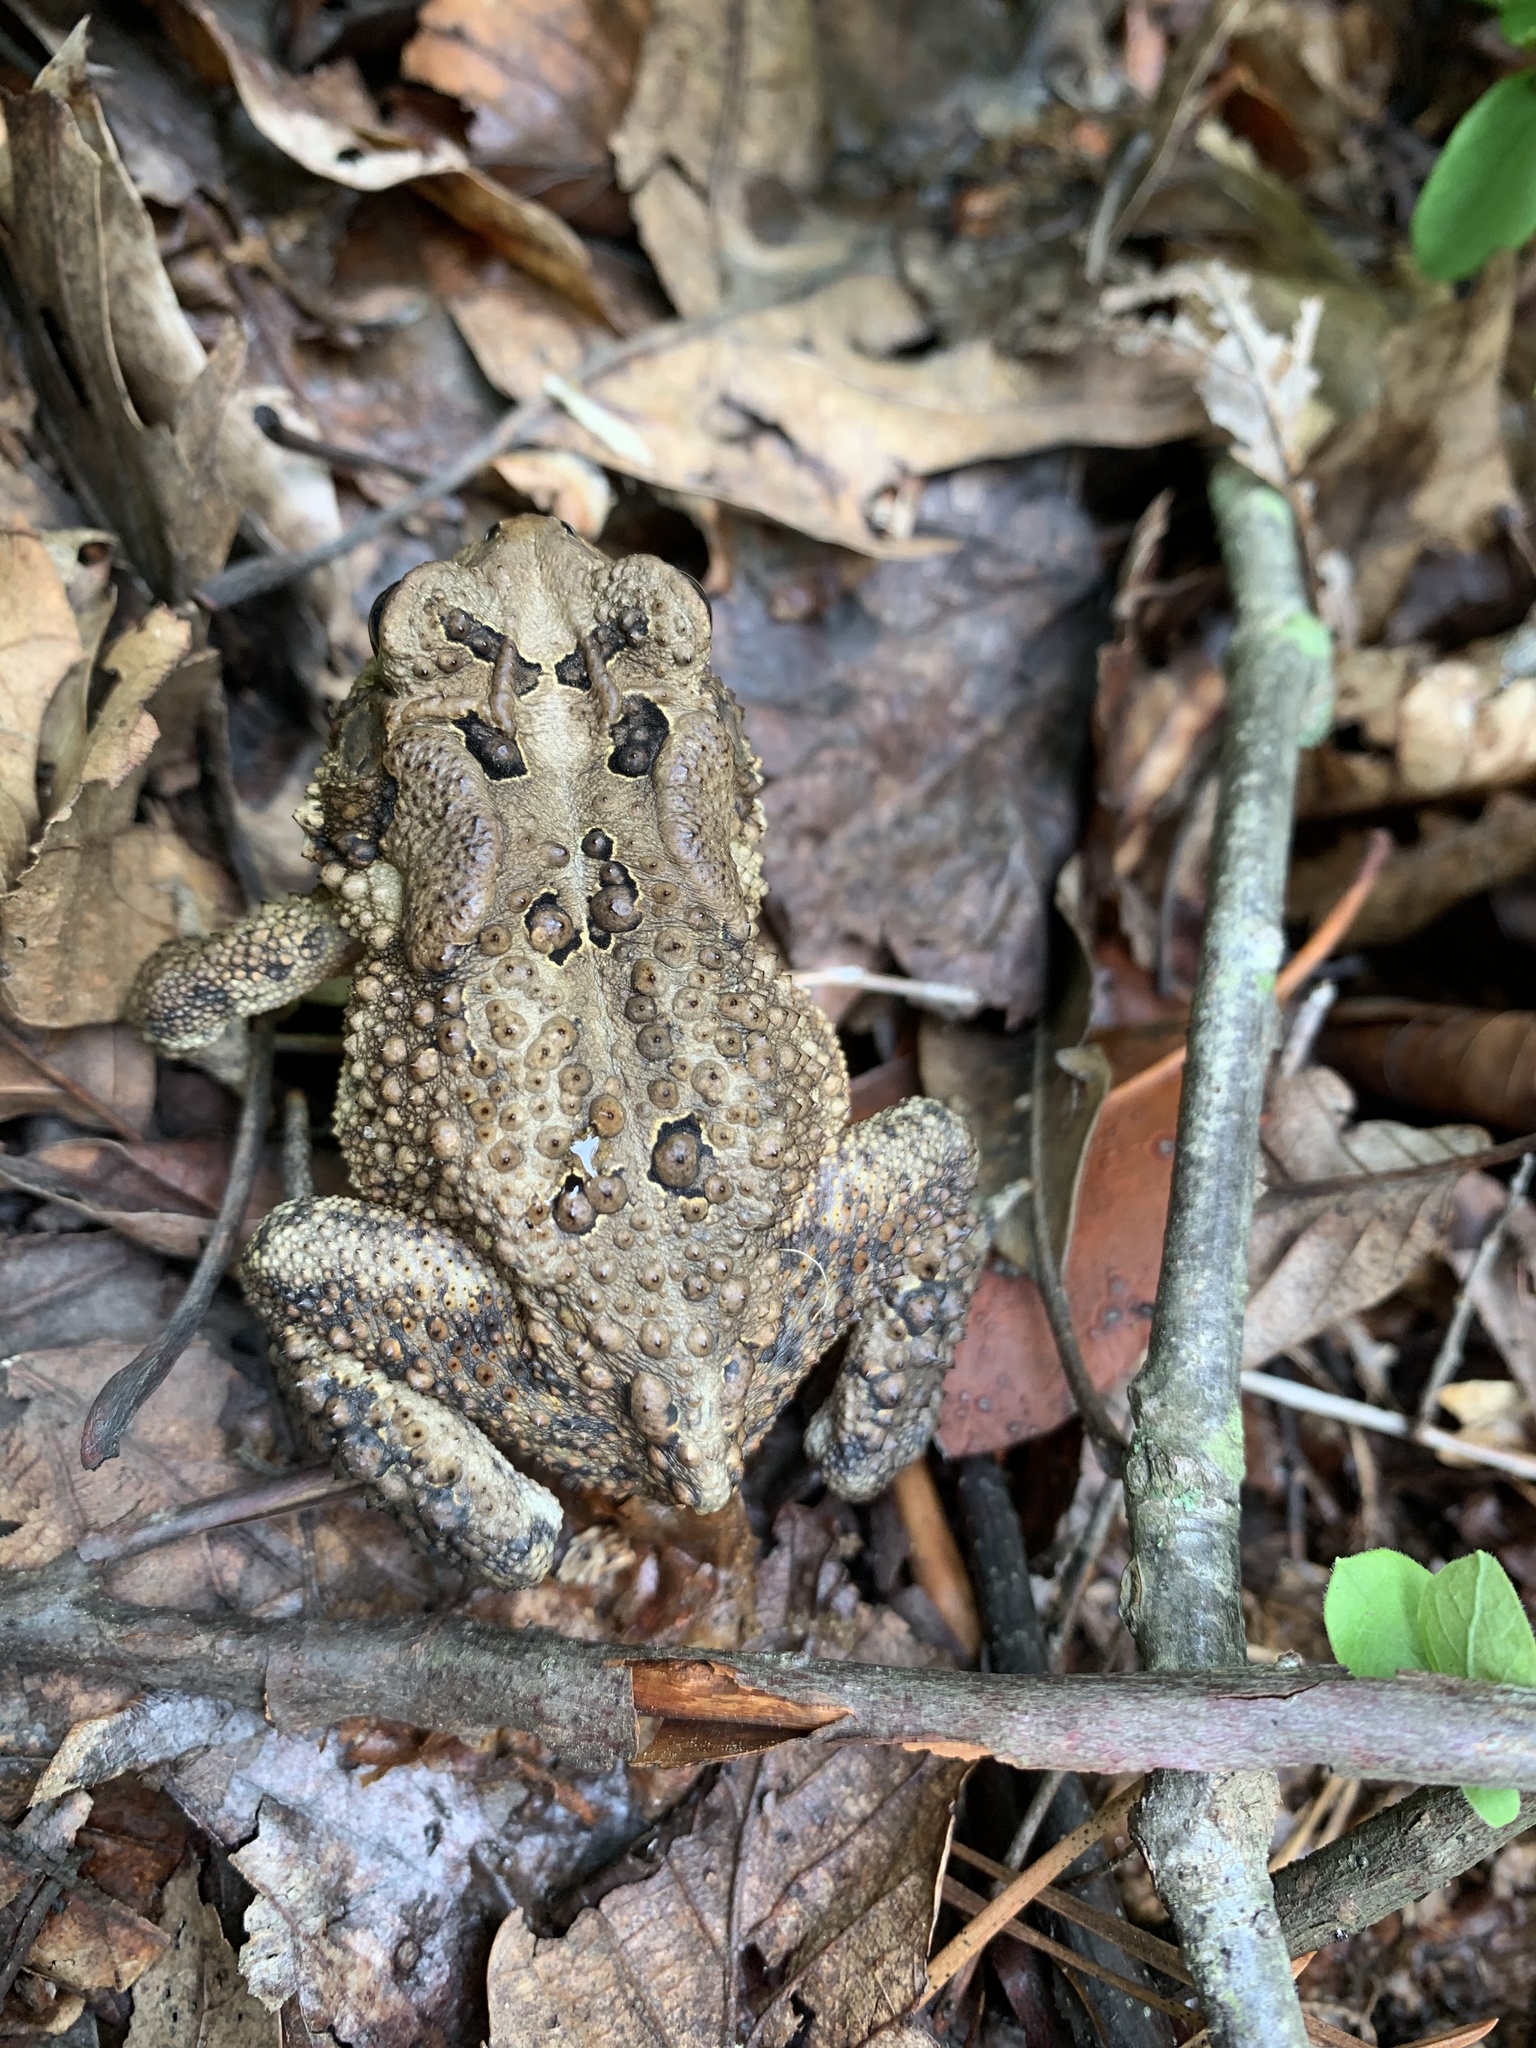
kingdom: Animalia
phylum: Chordata
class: Amphibia
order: Anura
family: Bufonidae
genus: Anaxyrus
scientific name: Anaxyrus americanus
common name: American toad
